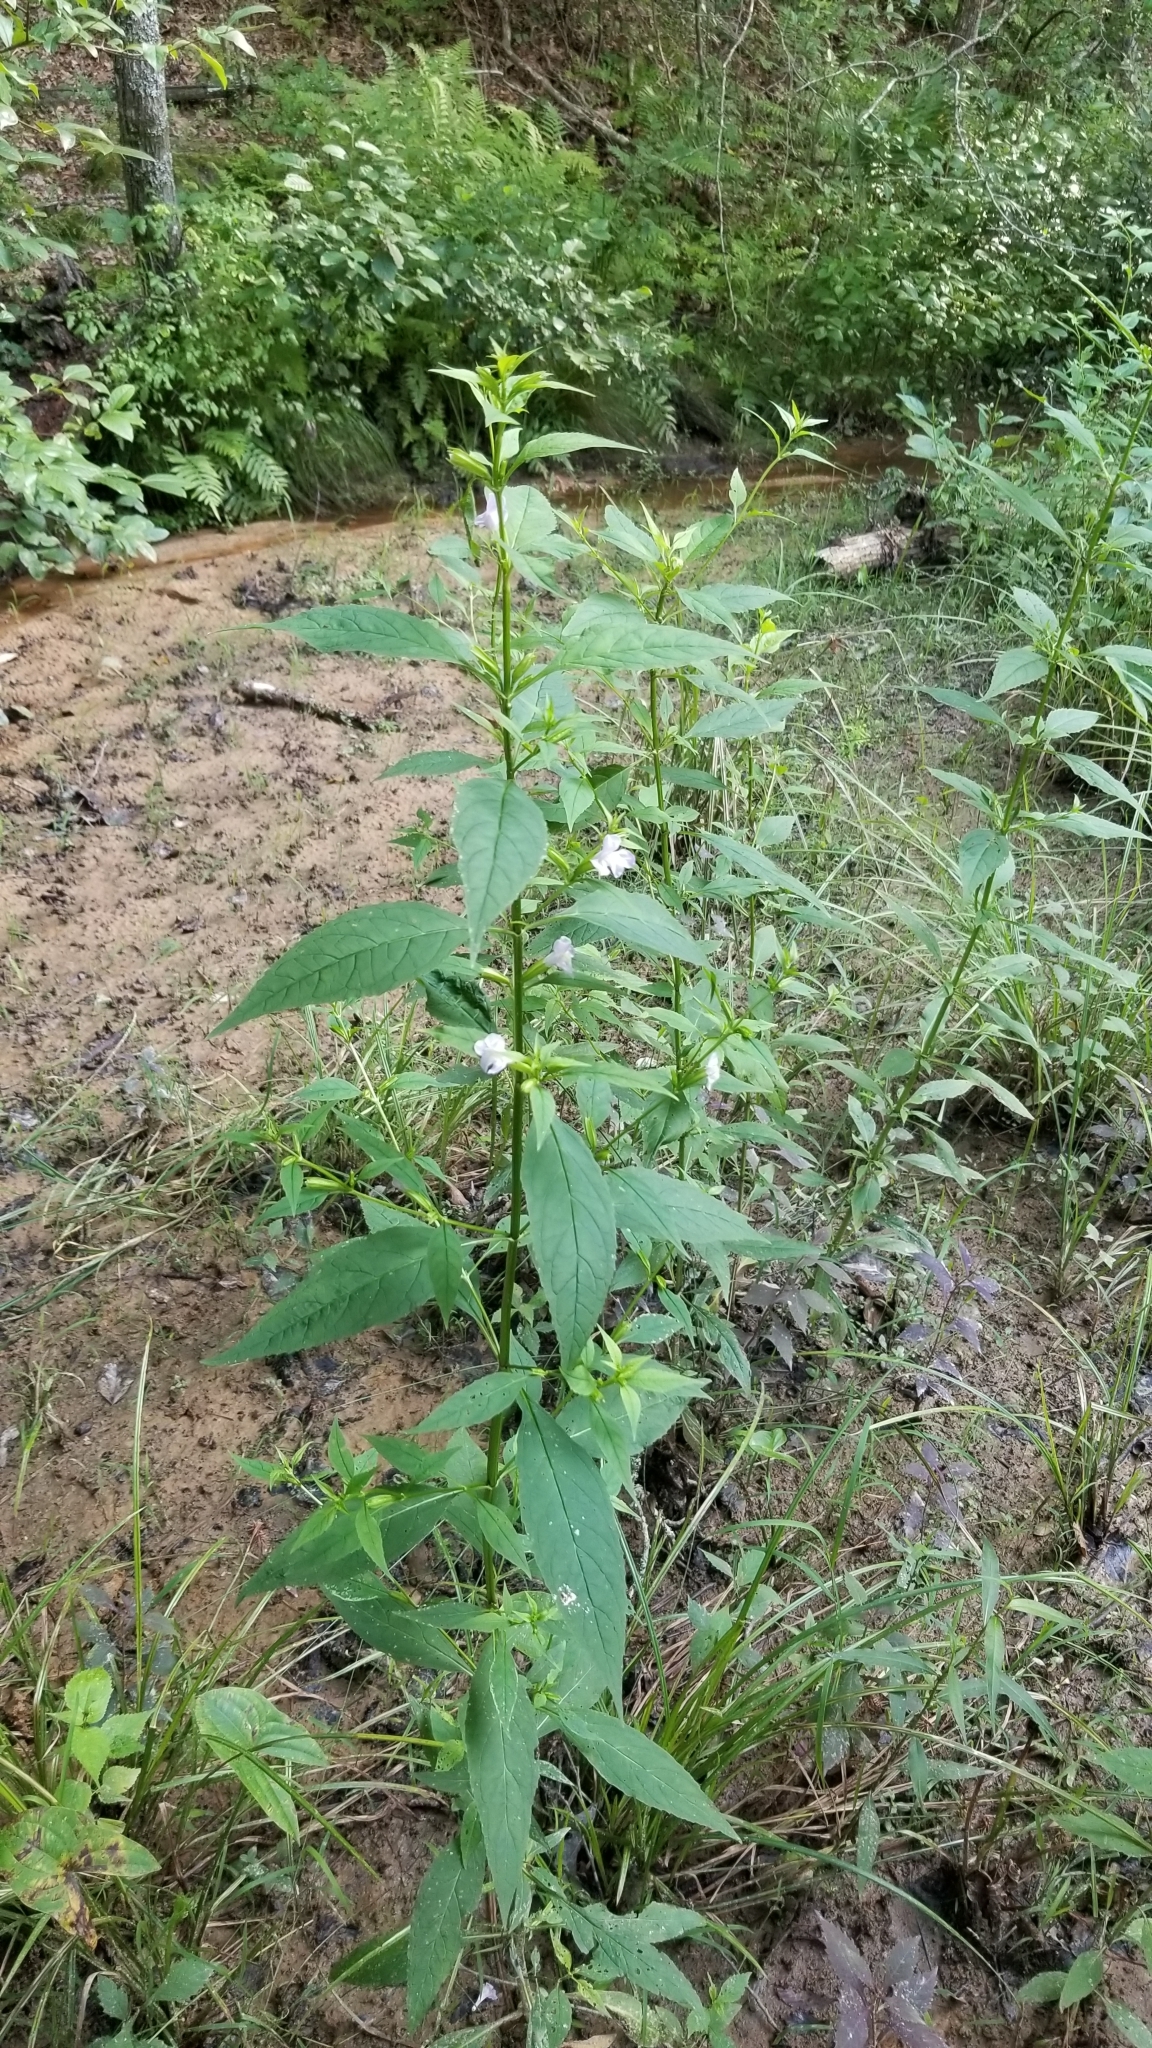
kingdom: Plantae
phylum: Tracheophyta
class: Magnoliopsida
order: Lamiales
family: Phrymaceae
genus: Mimulus
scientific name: Mimulus alatus
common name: Sharp-wing monkey-flower
